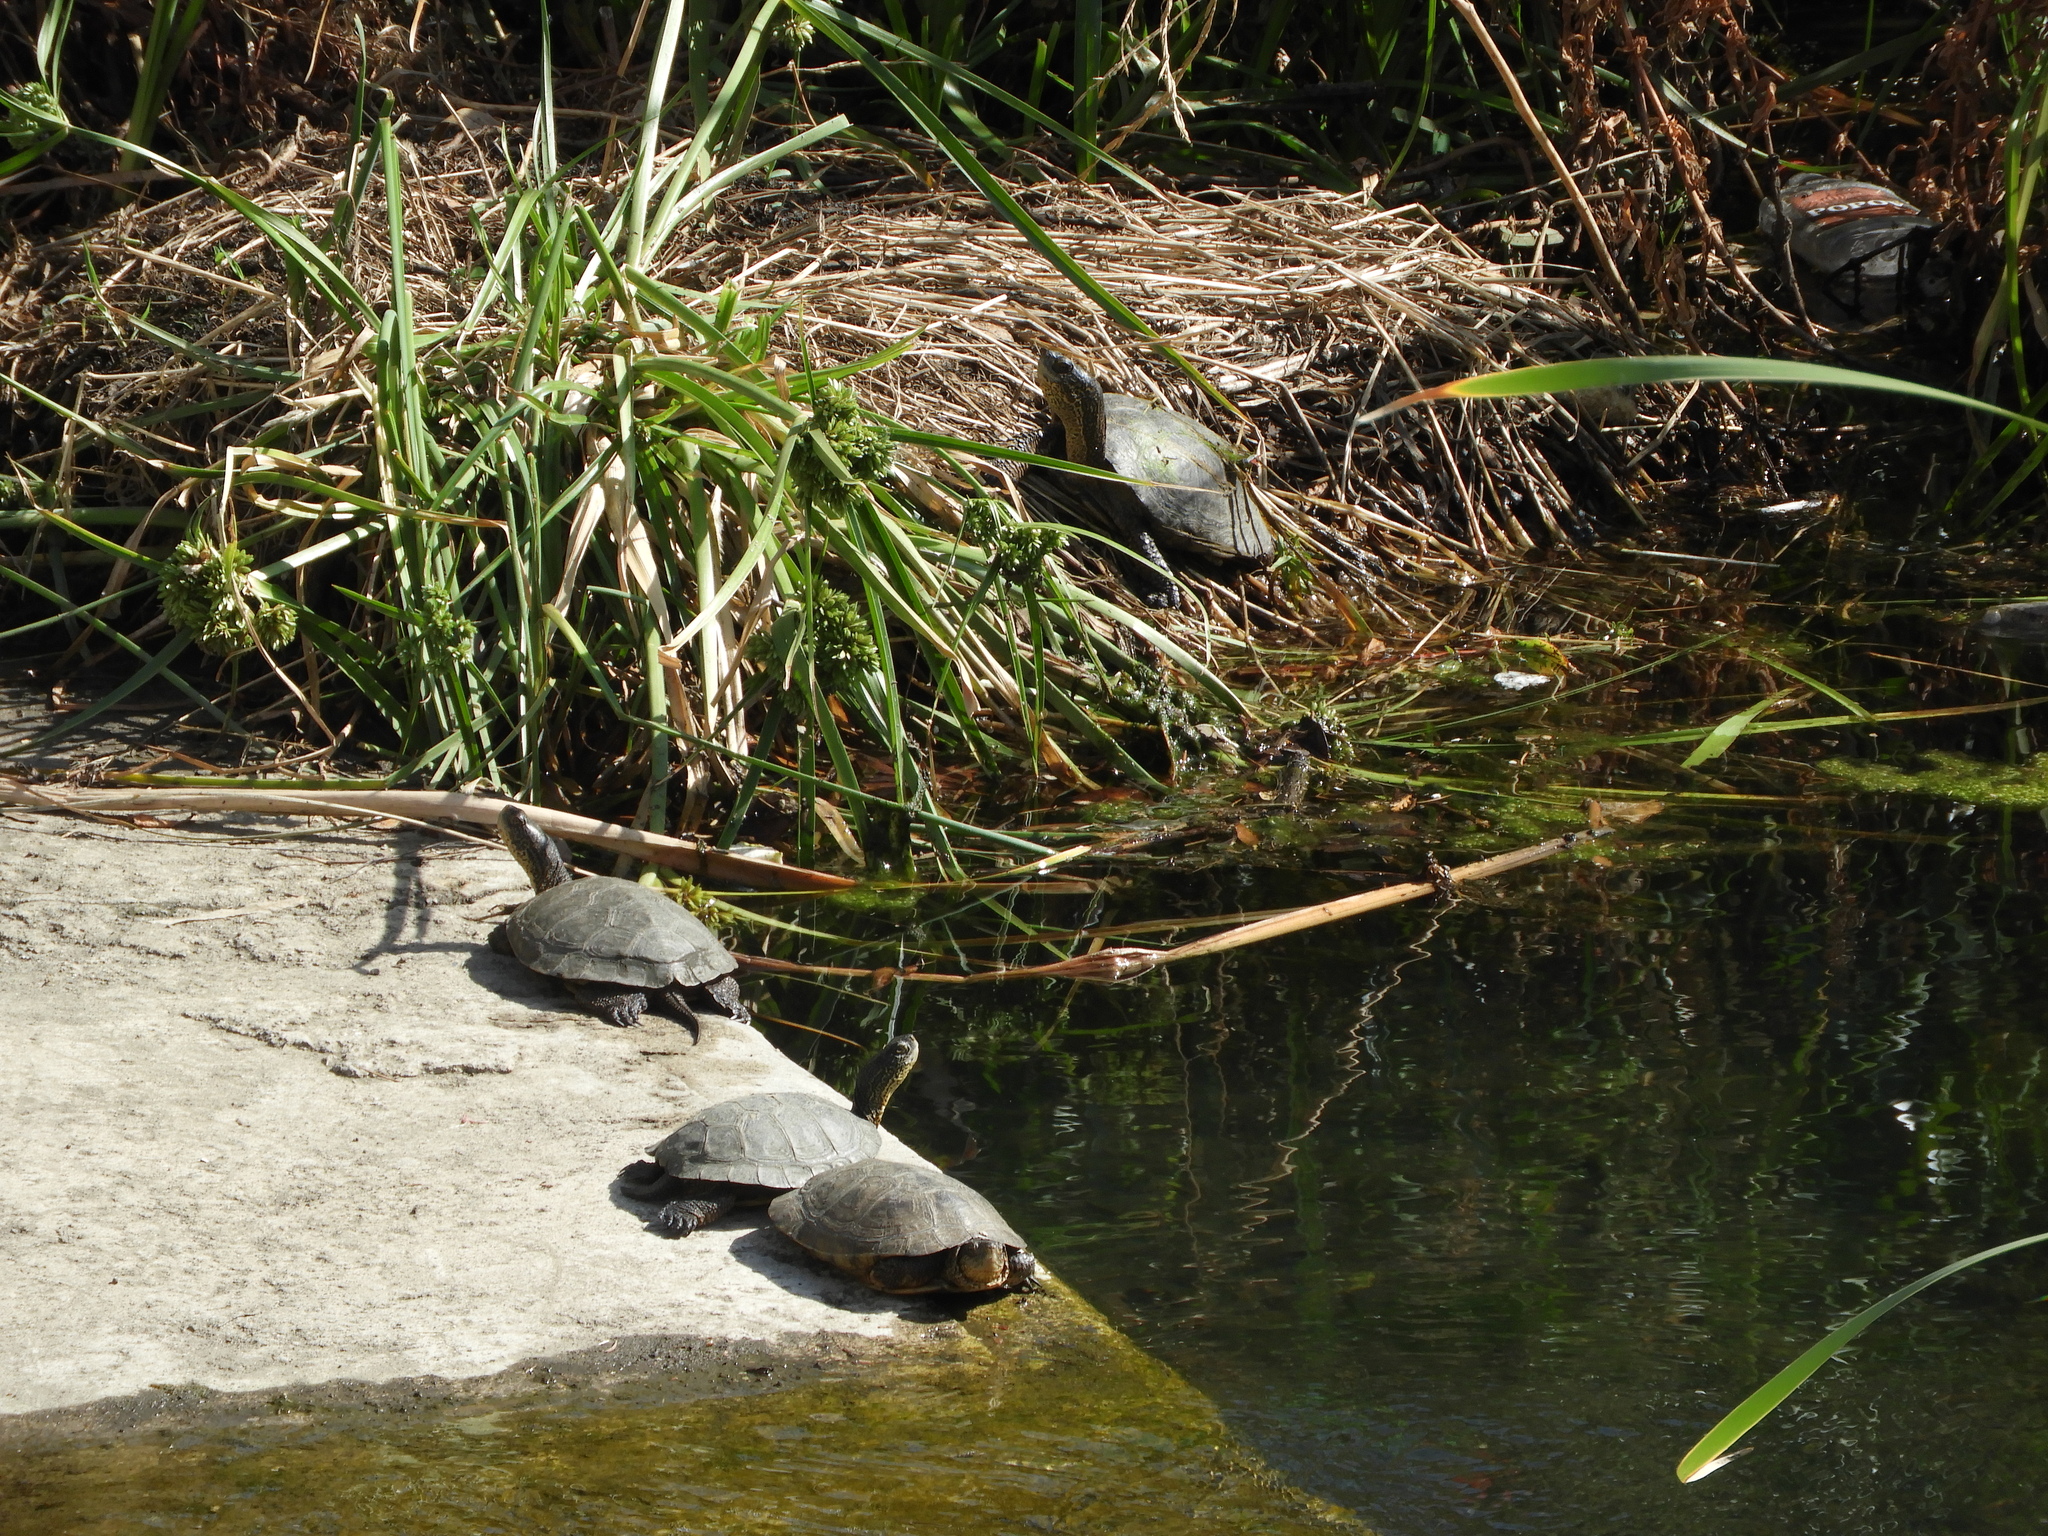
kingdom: Animalia
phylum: Chordata
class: Testudines
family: Emydidae
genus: Actinemys
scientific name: Actinemys marmorata
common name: Western pond turtle
